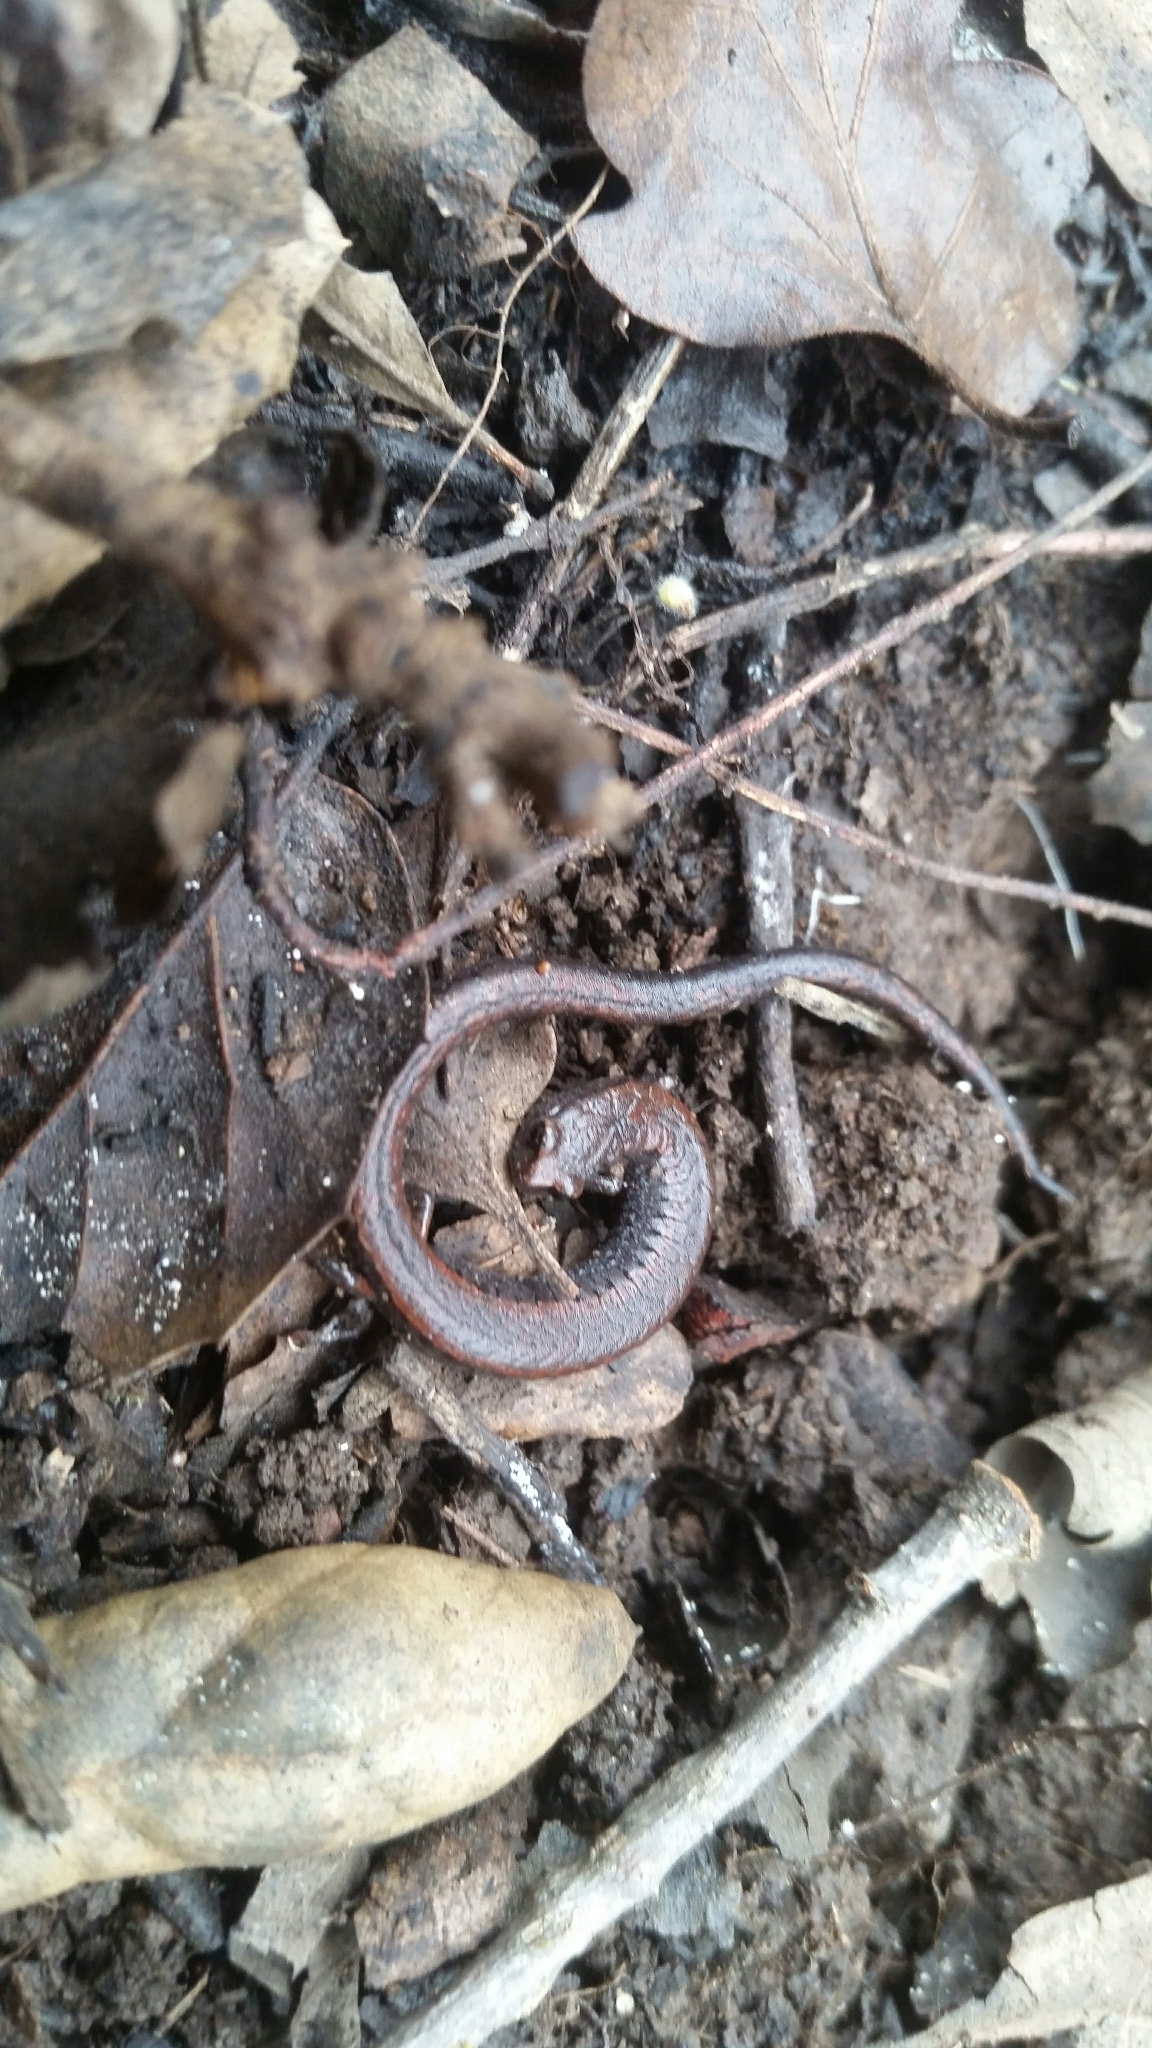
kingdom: Animalia
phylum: Chordata
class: Amphibia
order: Caudata
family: Plethodontidae
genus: Batrachoseps
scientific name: Batrachoseps attenuatus
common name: California slender salamander
